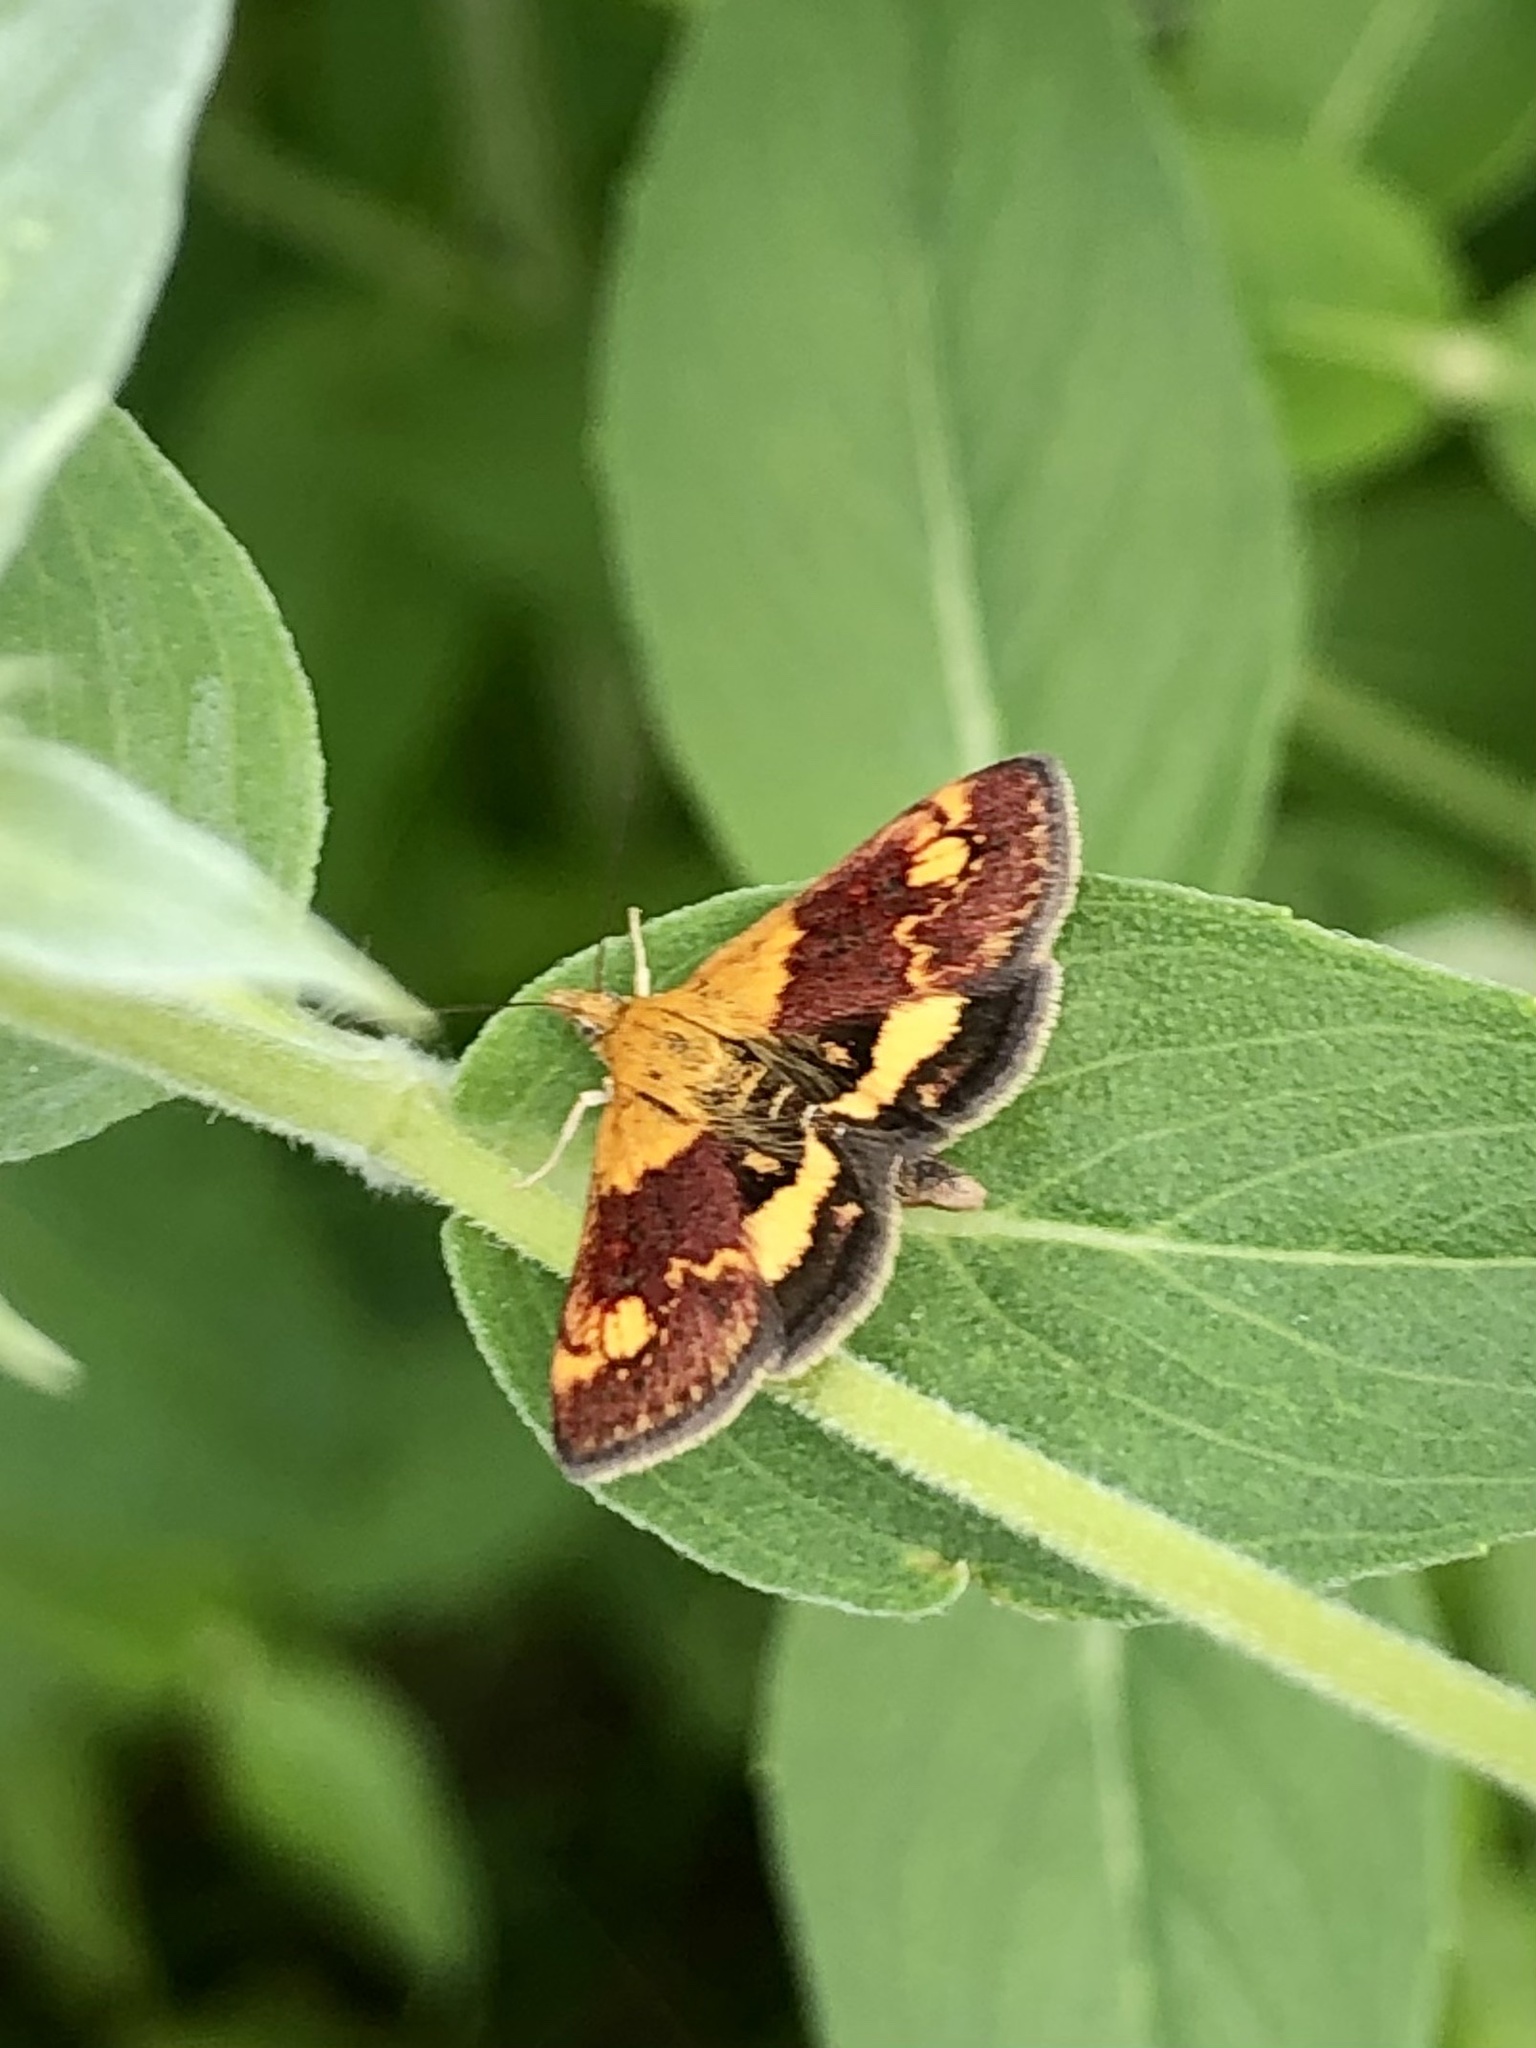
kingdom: Animalia
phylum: Arthropoda
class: Insecta
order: Lepidoptera
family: Crambidae
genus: Pyrausta
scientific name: Pyrausta orphisalis
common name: Orange mint moth
